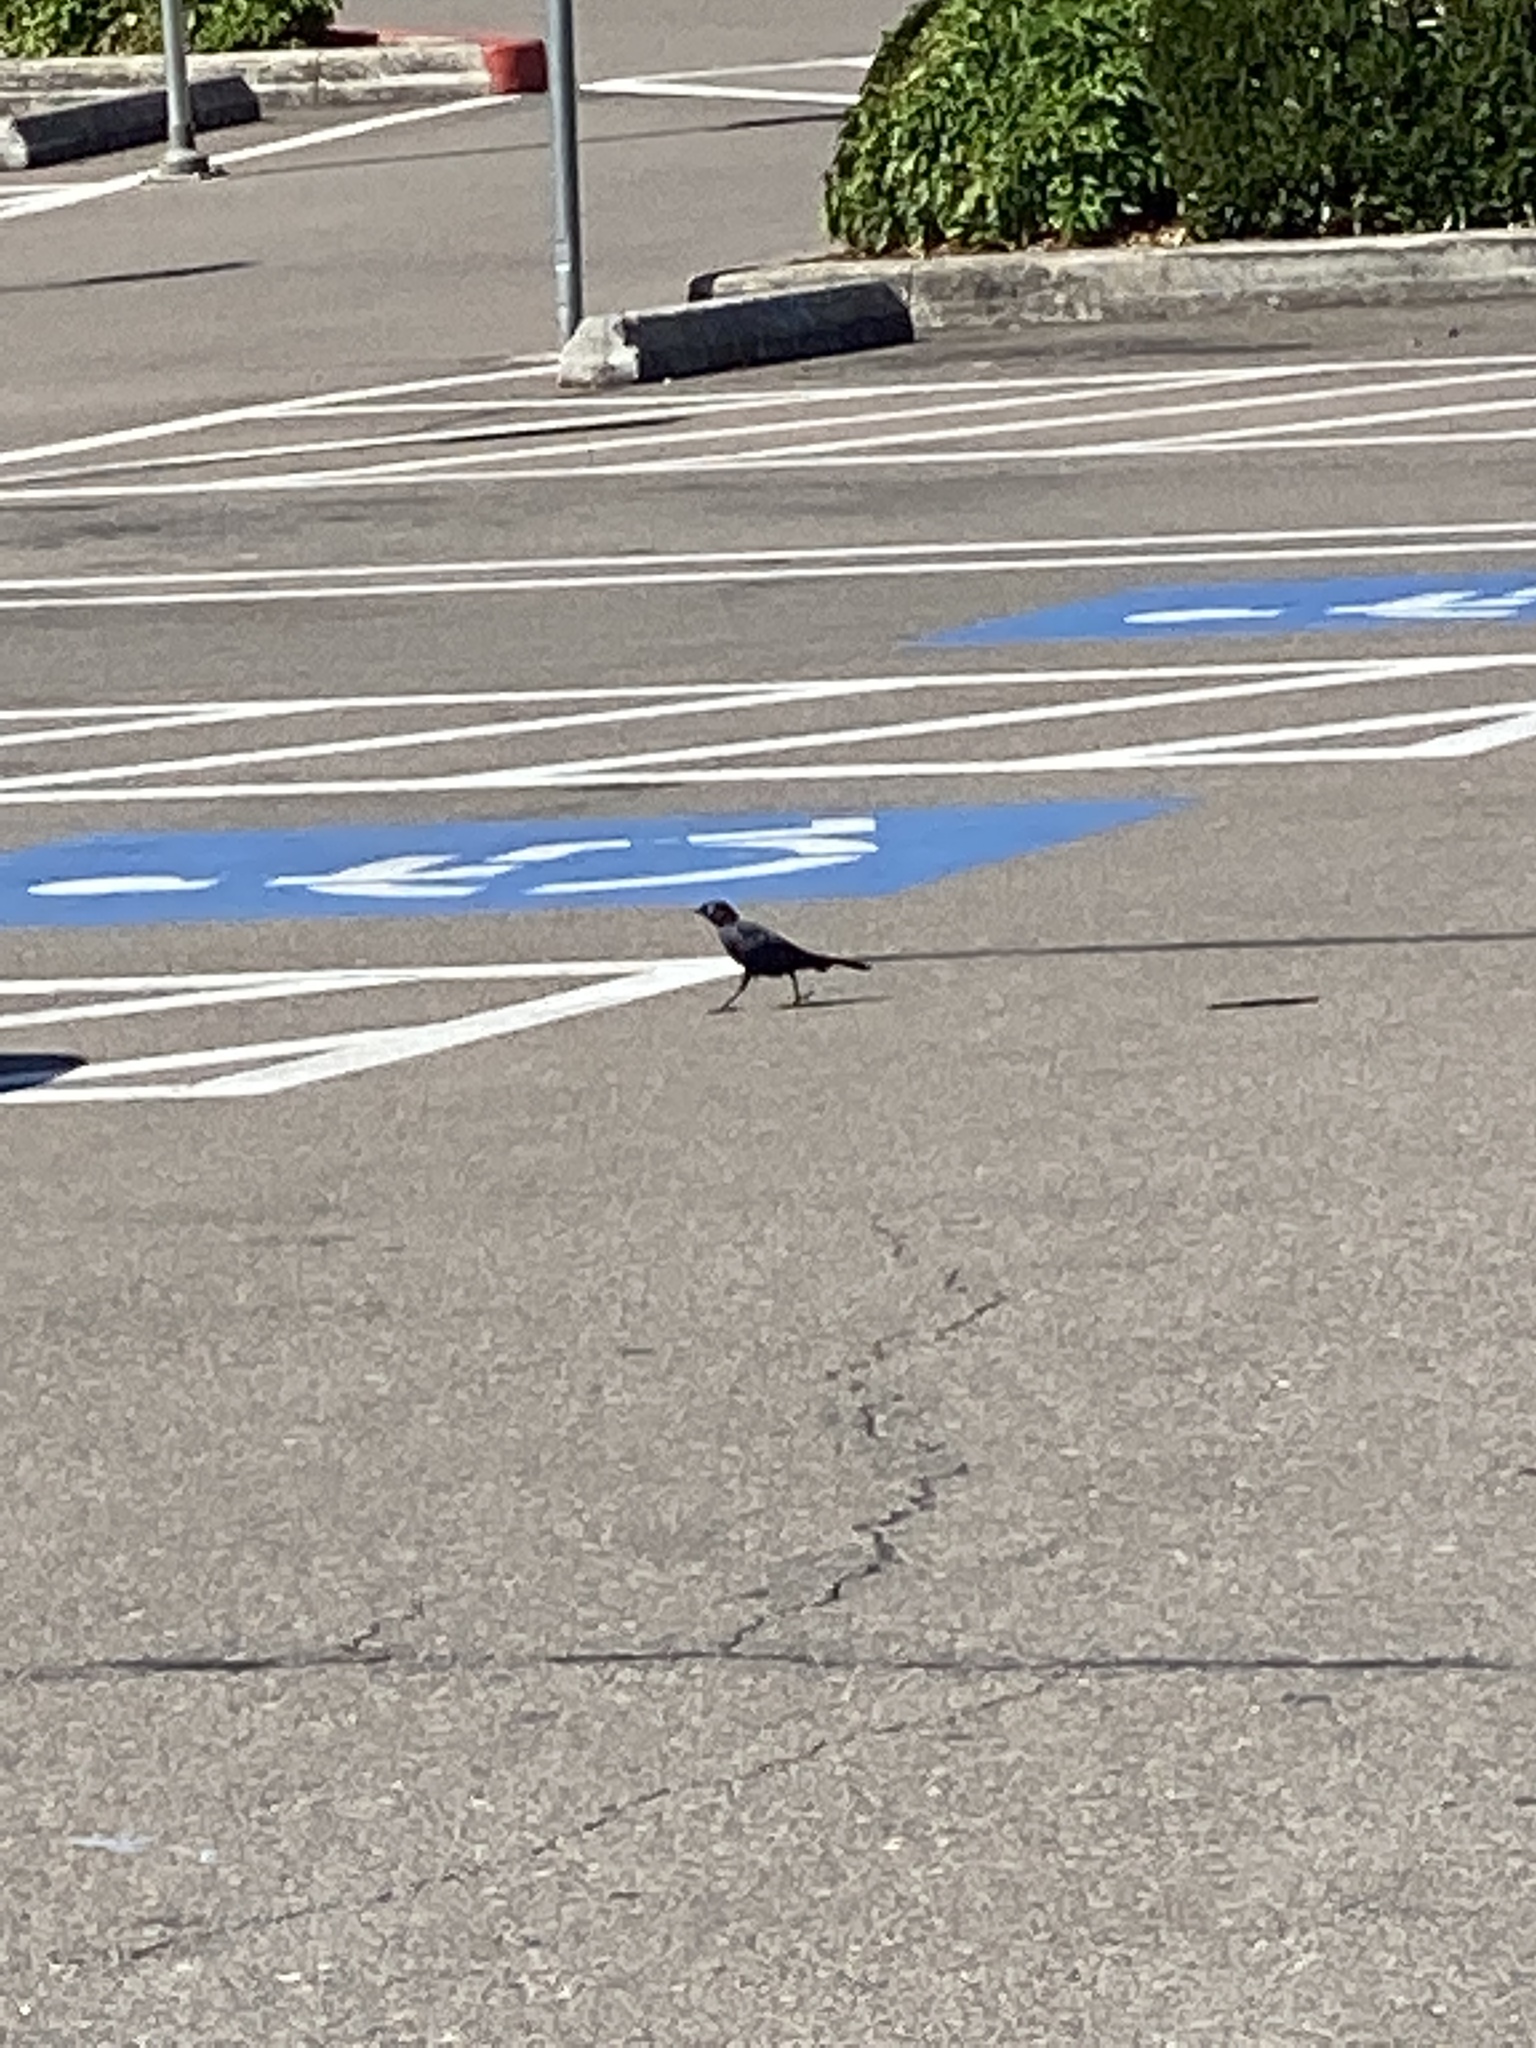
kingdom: Animalia
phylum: Chordata
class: Aves
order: Passeriformes
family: Icteridae
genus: Euphagus
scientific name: Euphagus cyanocephalus
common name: Brewer's blackbird
